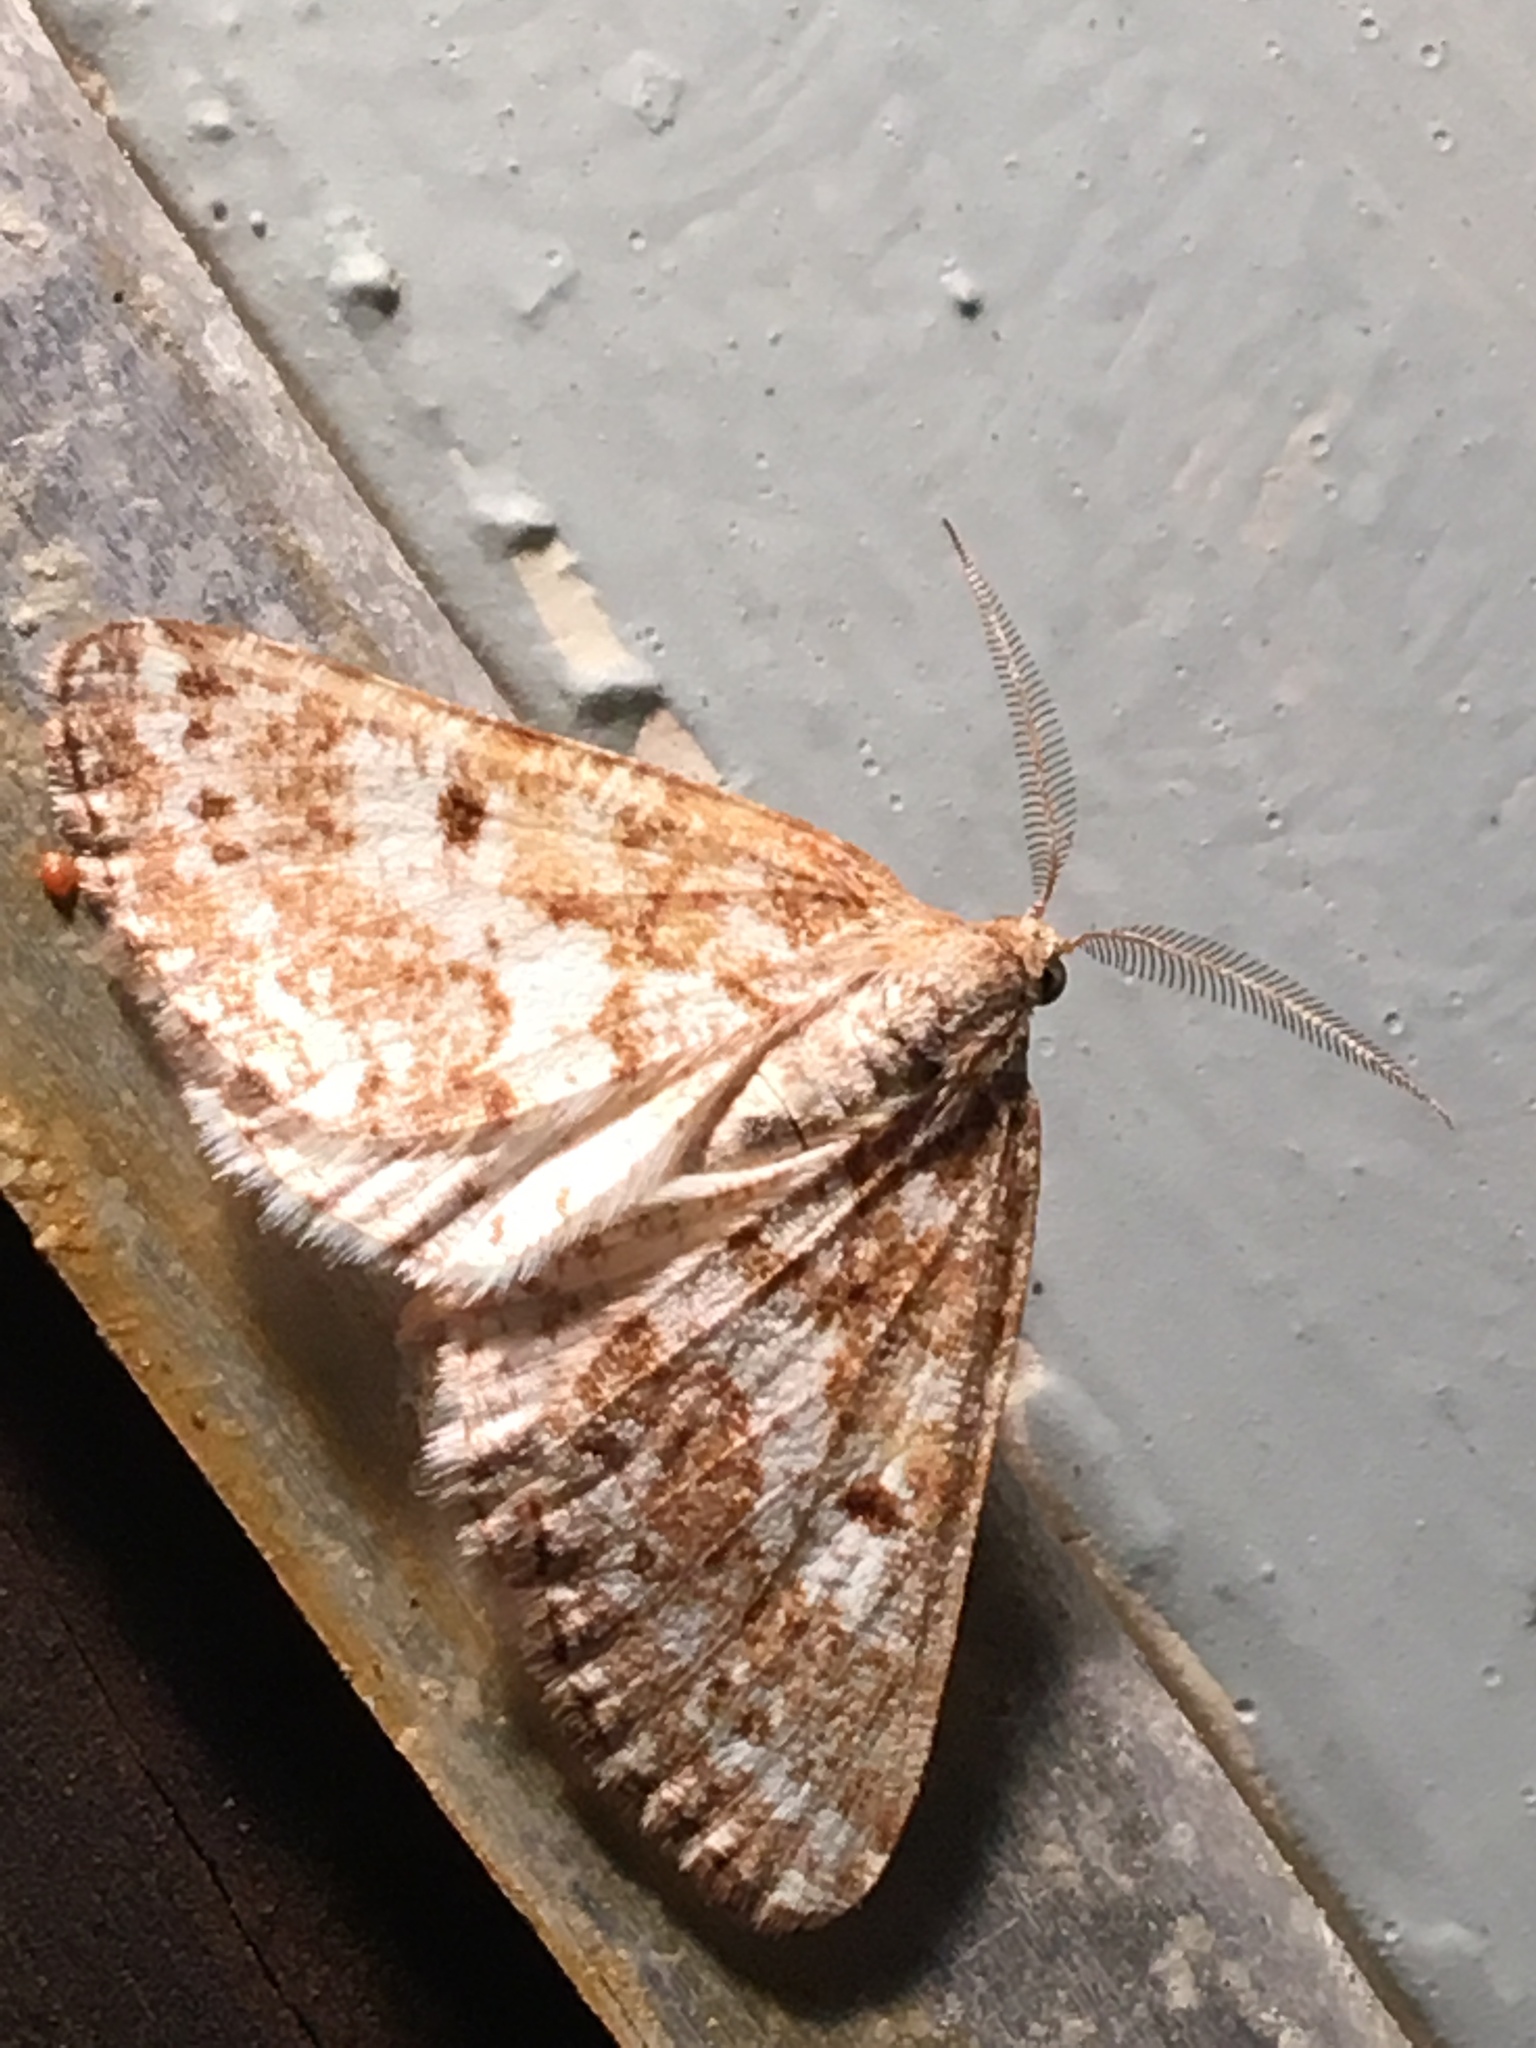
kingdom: Animalia
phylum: Arthropoda
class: Insecta
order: Lepidoptera
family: Geometridae
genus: Eufidonia
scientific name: Eufidonia notataria
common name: Powder moth
